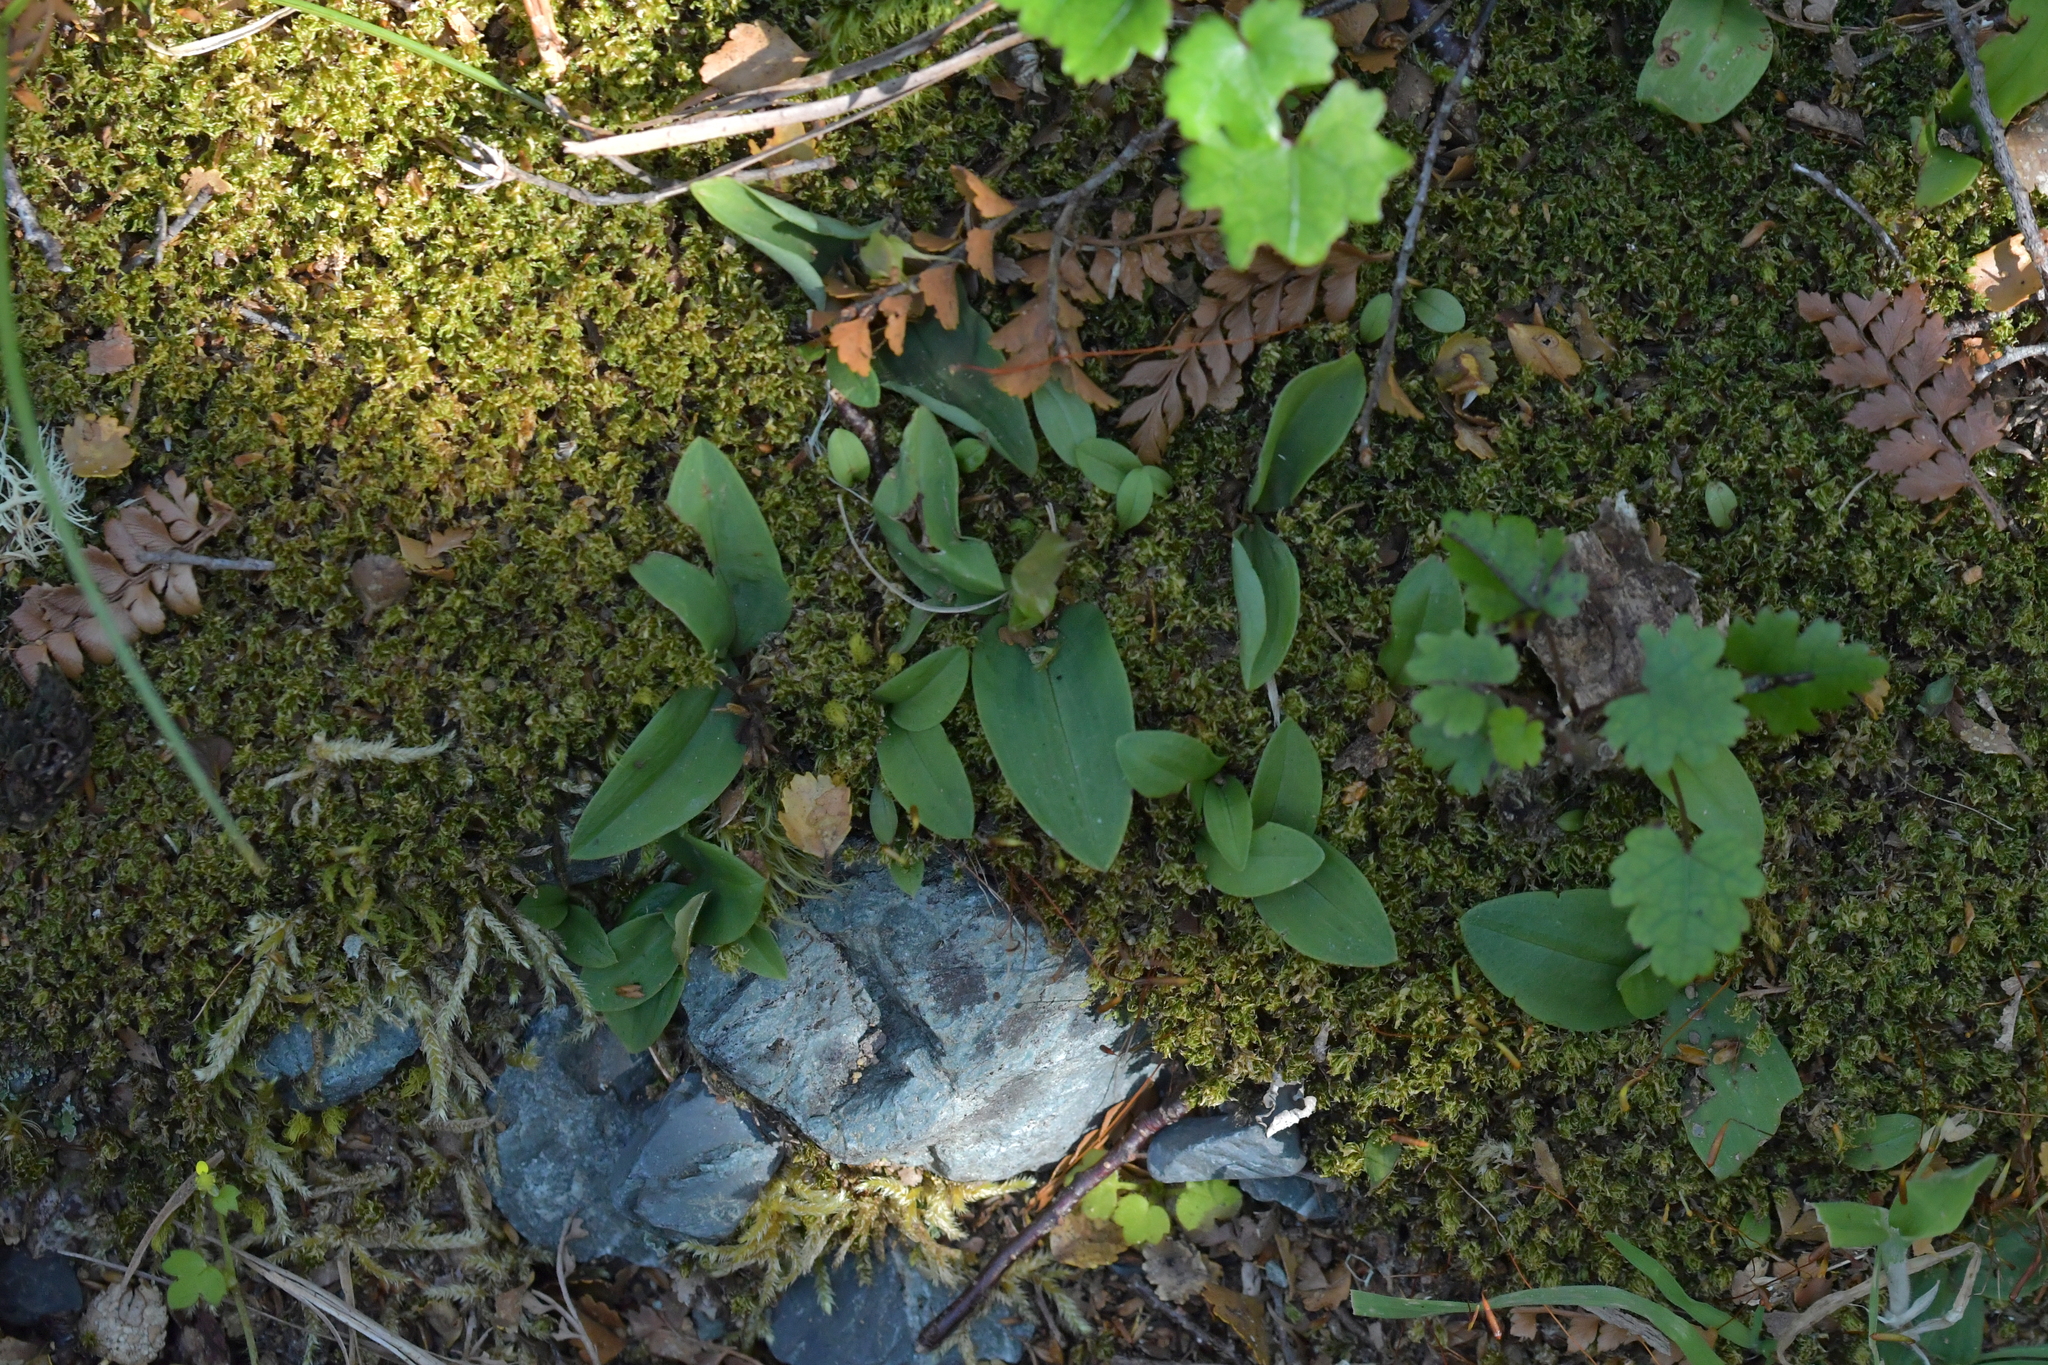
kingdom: Plantae
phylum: Tracheophyta
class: Liliopsida
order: Asparagales
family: Orchidaceae
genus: Chiloglottis
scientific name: Chiloglottis cornuta
